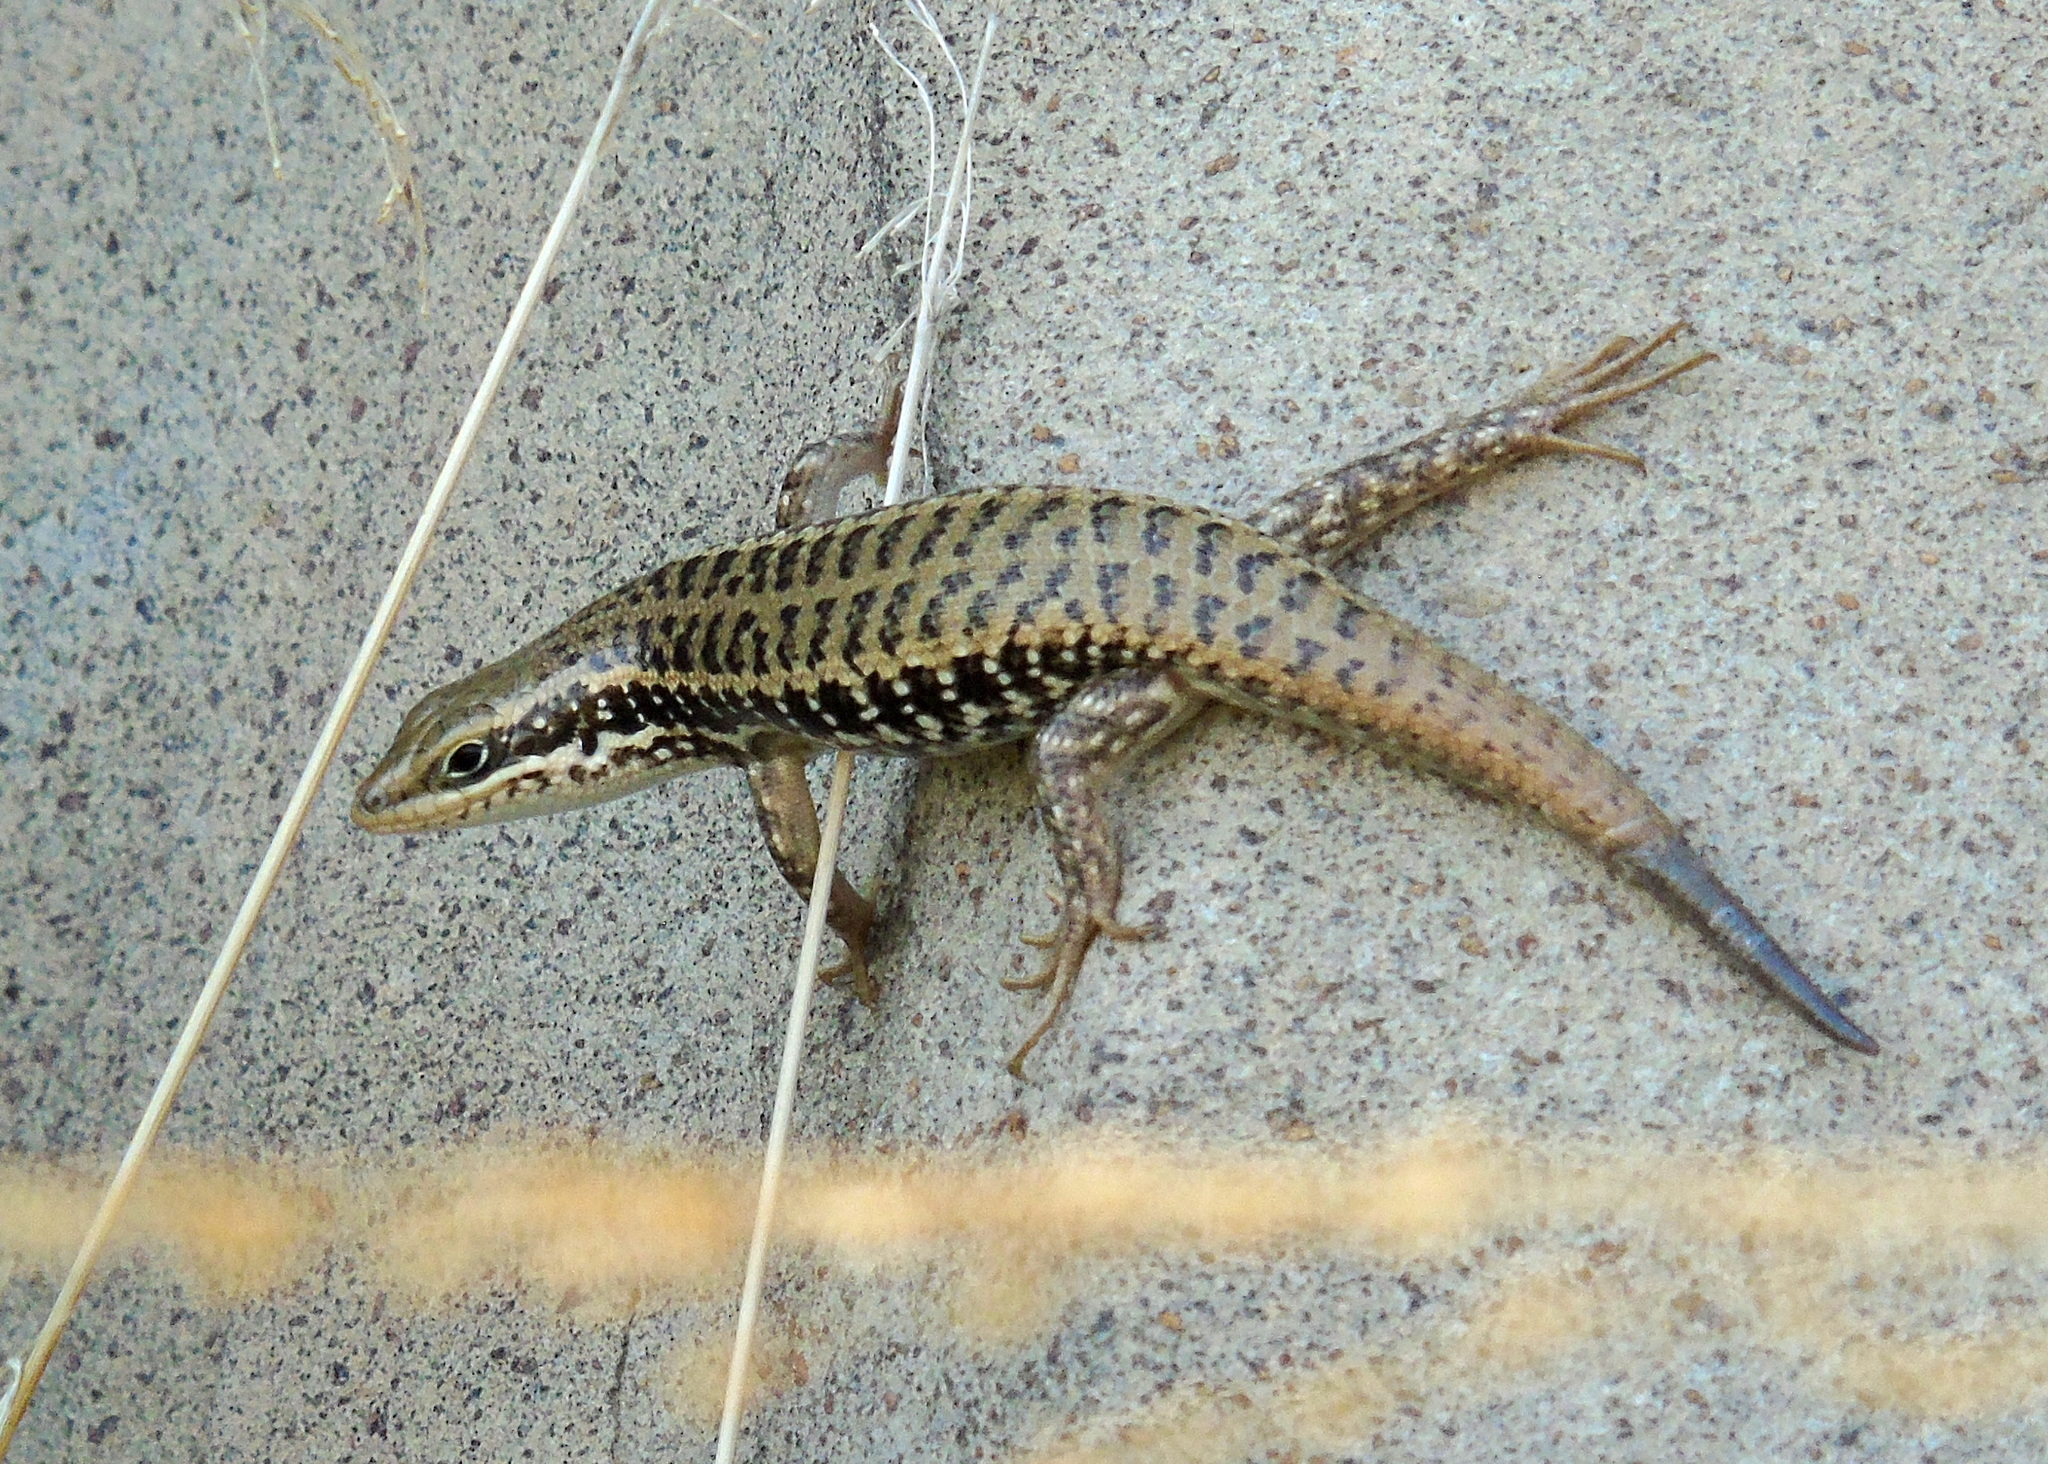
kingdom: Animalia
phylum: Chordata
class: Squamata
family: Scincidae
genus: Heremites
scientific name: Heremites auratus
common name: Golden grass mabuya
